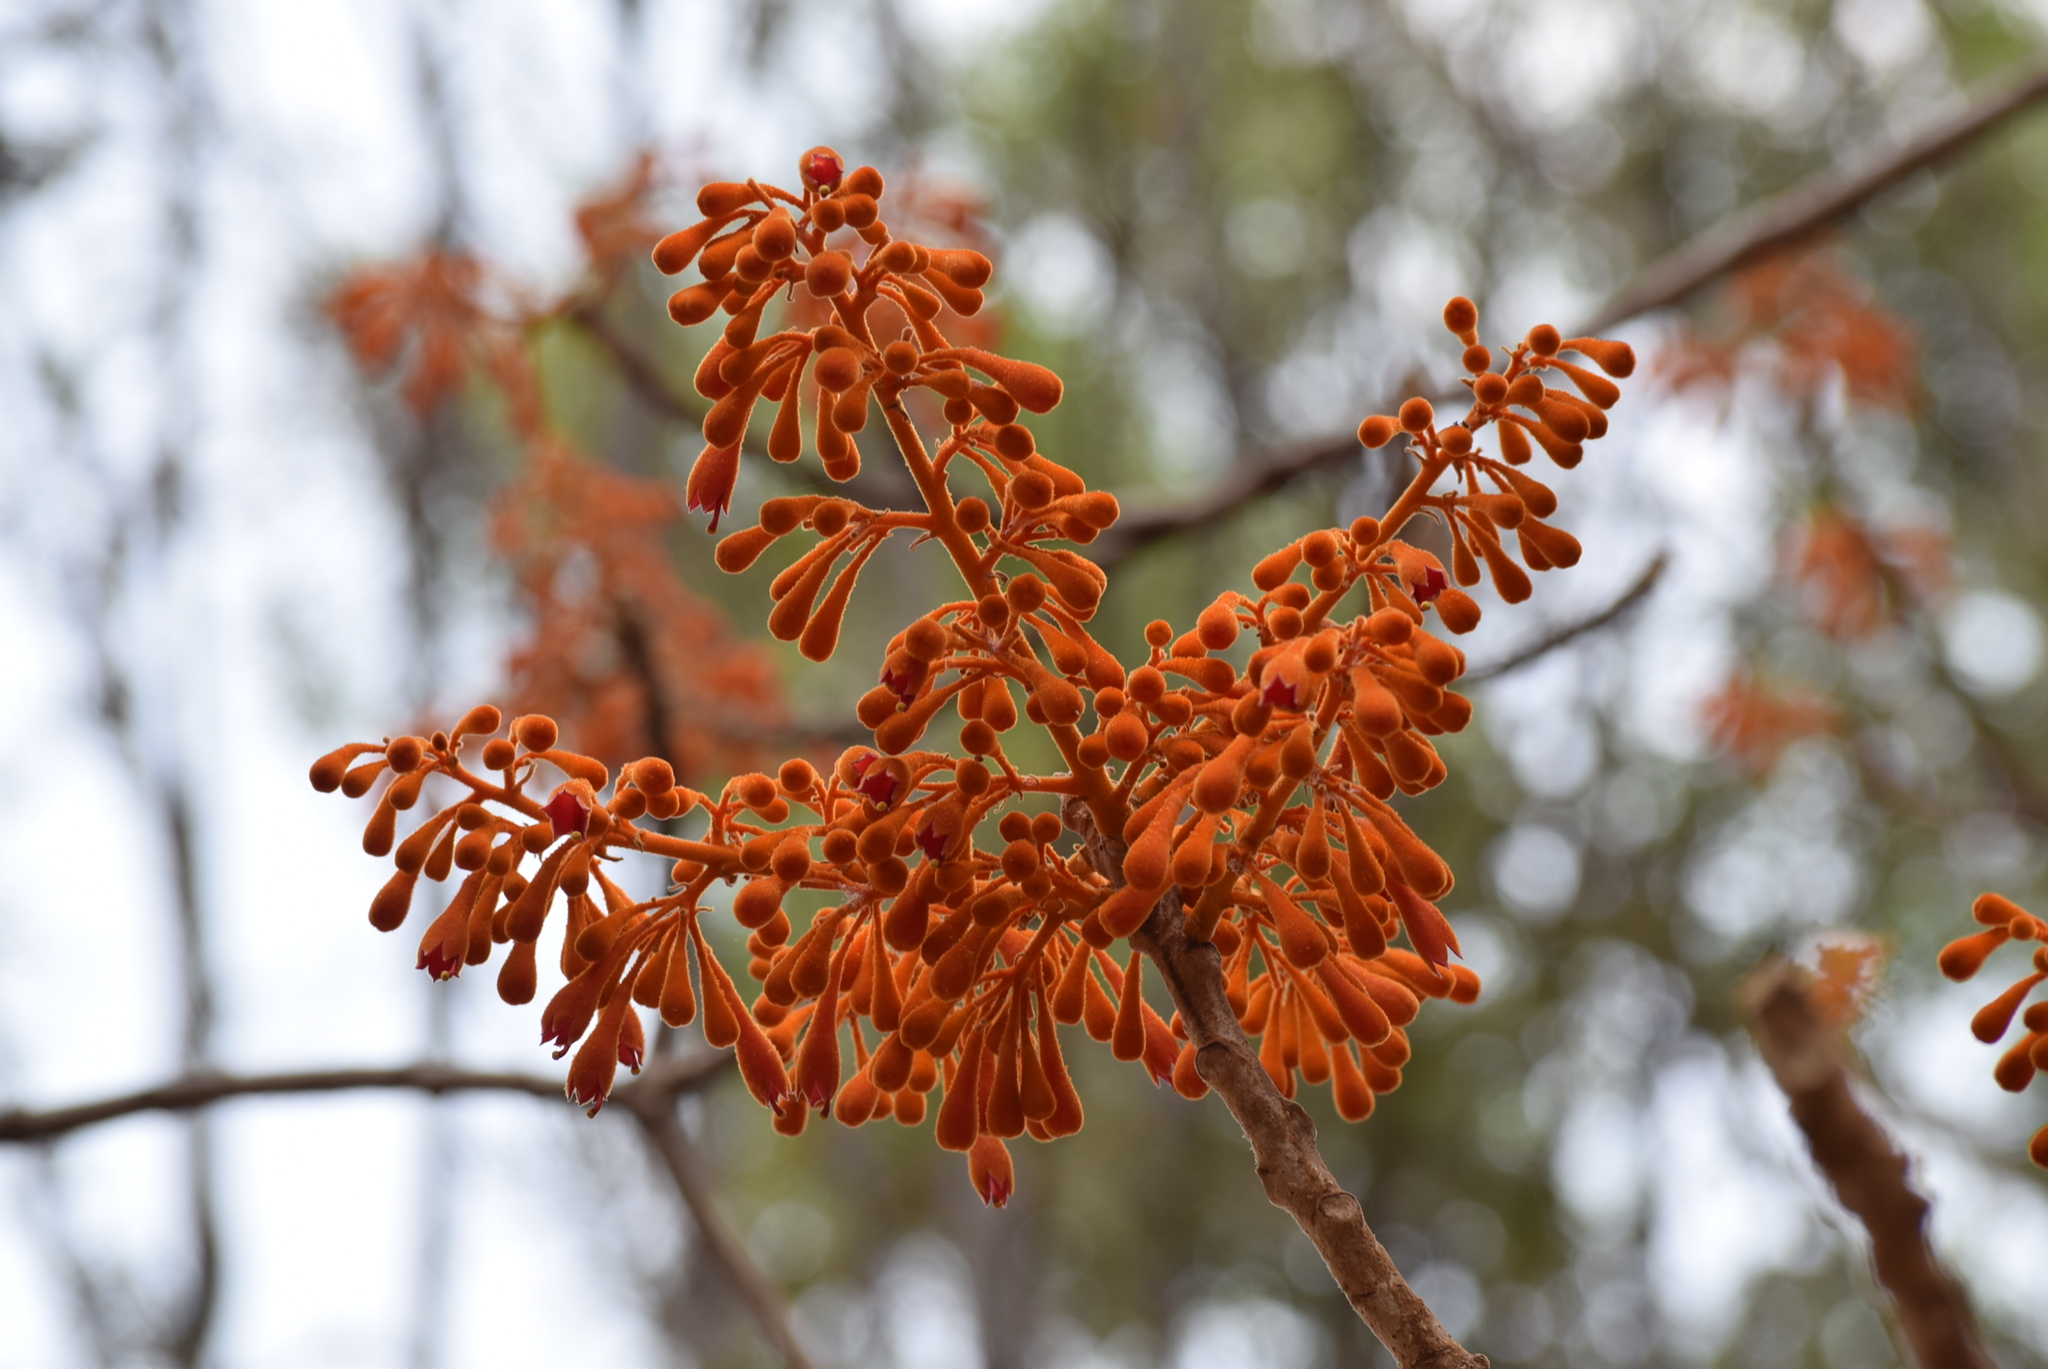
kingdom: Plantae
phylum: Tracheophyta
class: Magnoliopsida
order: Malvales
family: Malvaceae
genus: Firmiana
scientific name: Firmiana colorata
